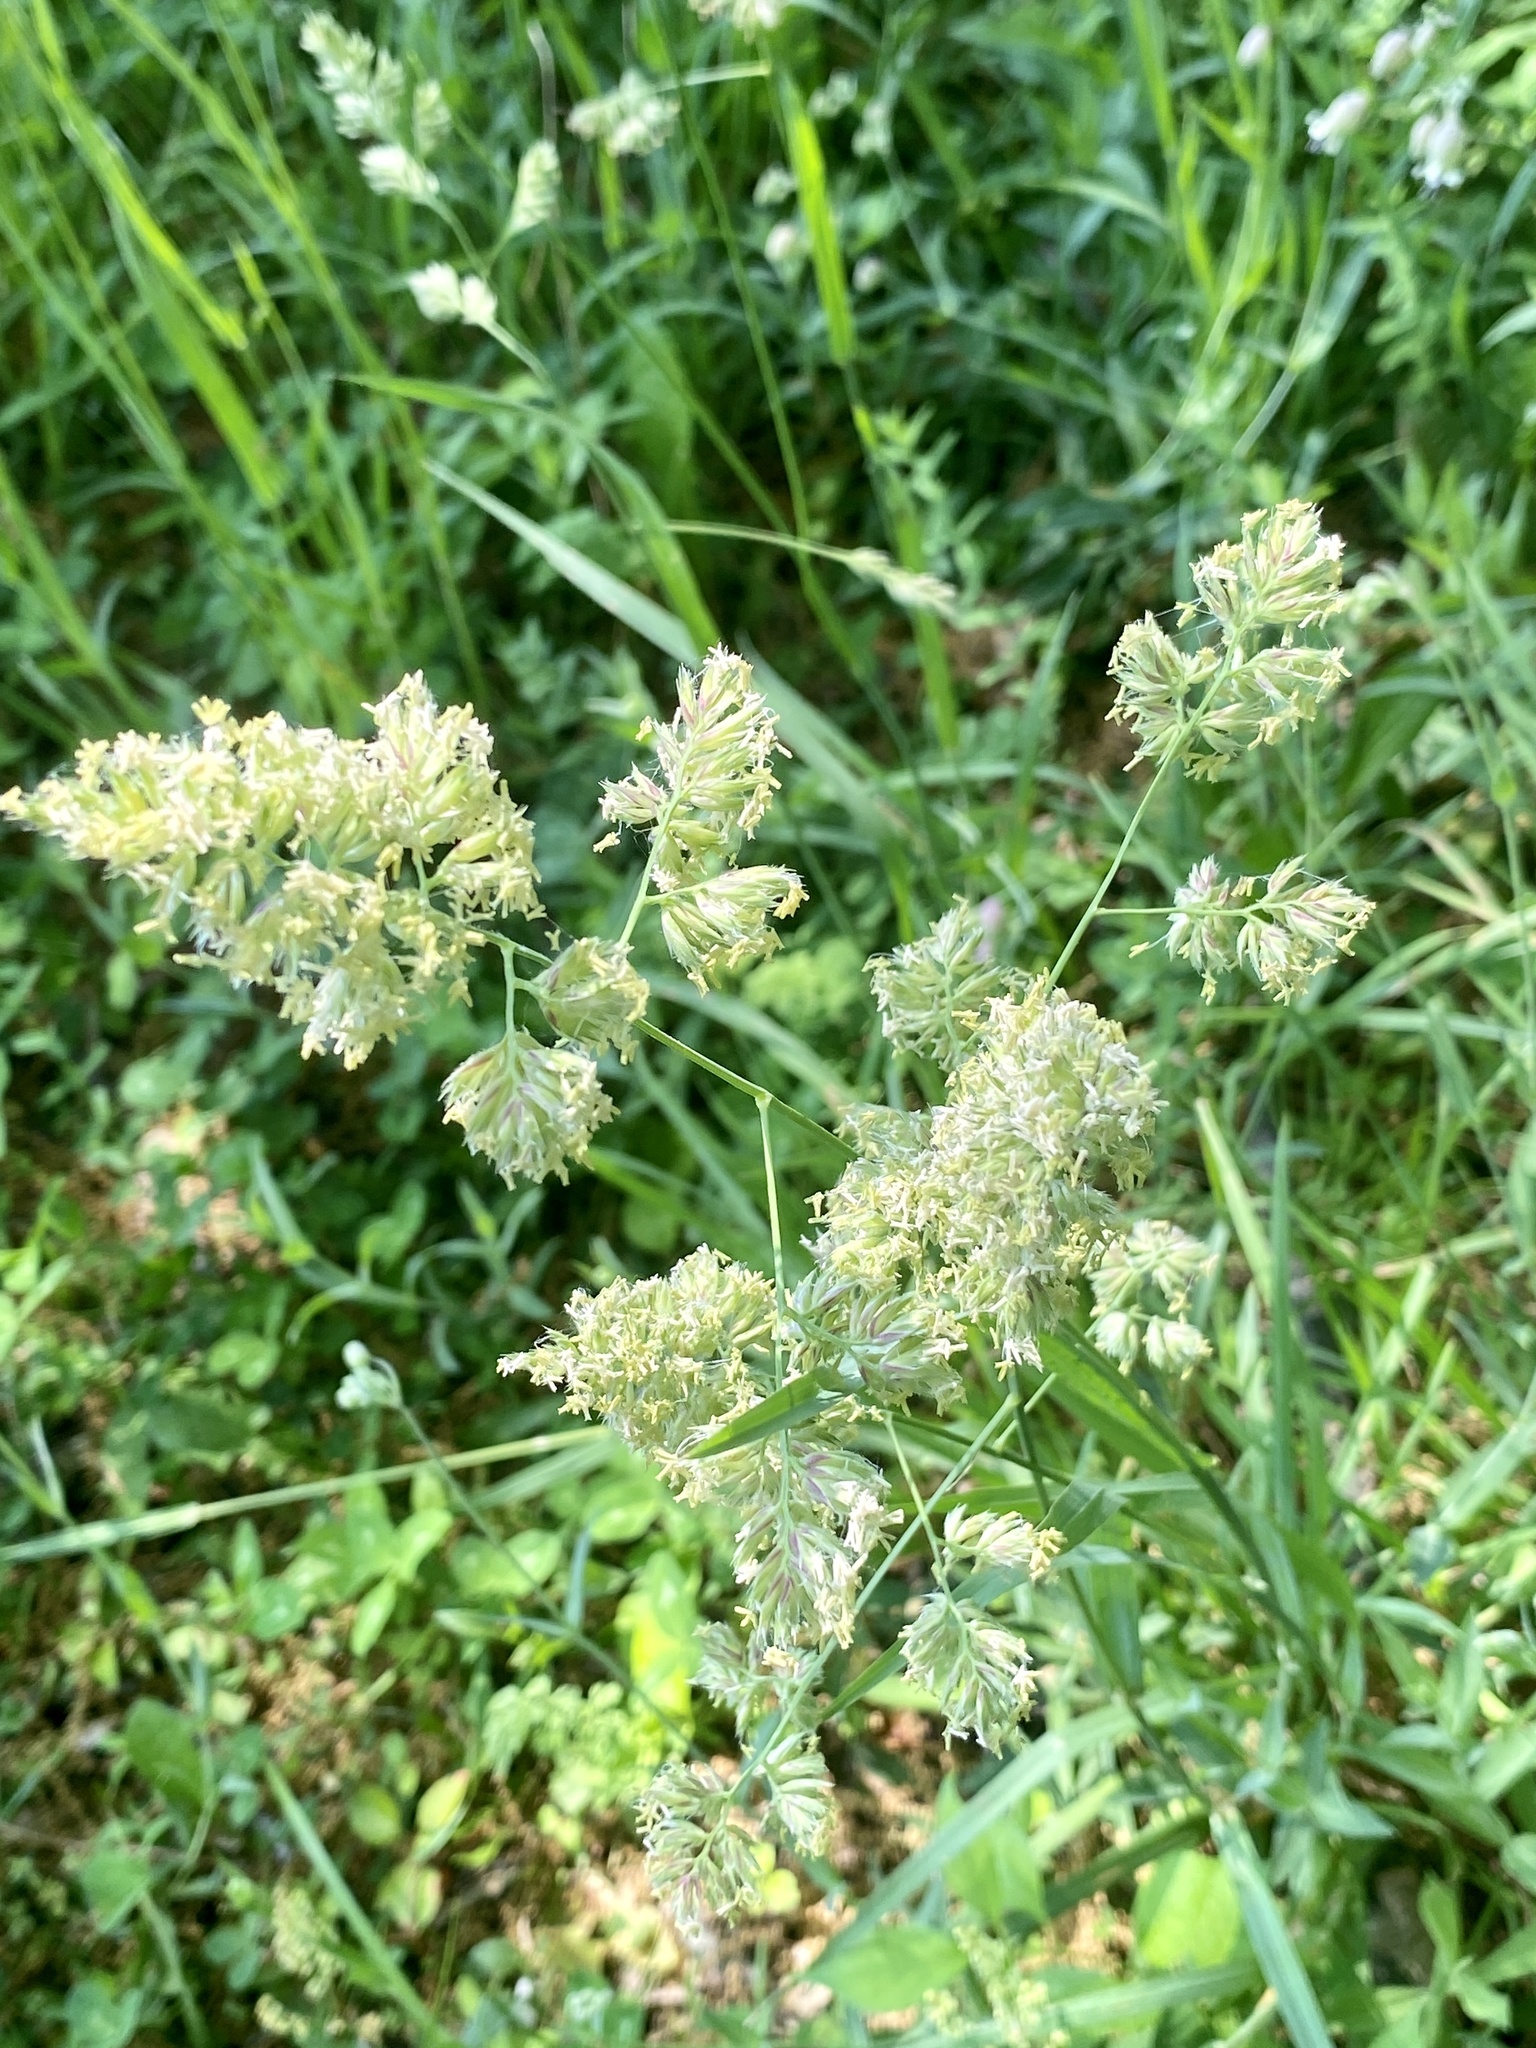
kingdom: Plantae
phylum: Tracheophyta
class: Liliopsida
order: Poales
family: Poaceae
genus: Dactylis
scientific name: Dactylis glomerata
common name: Orchardgrass
